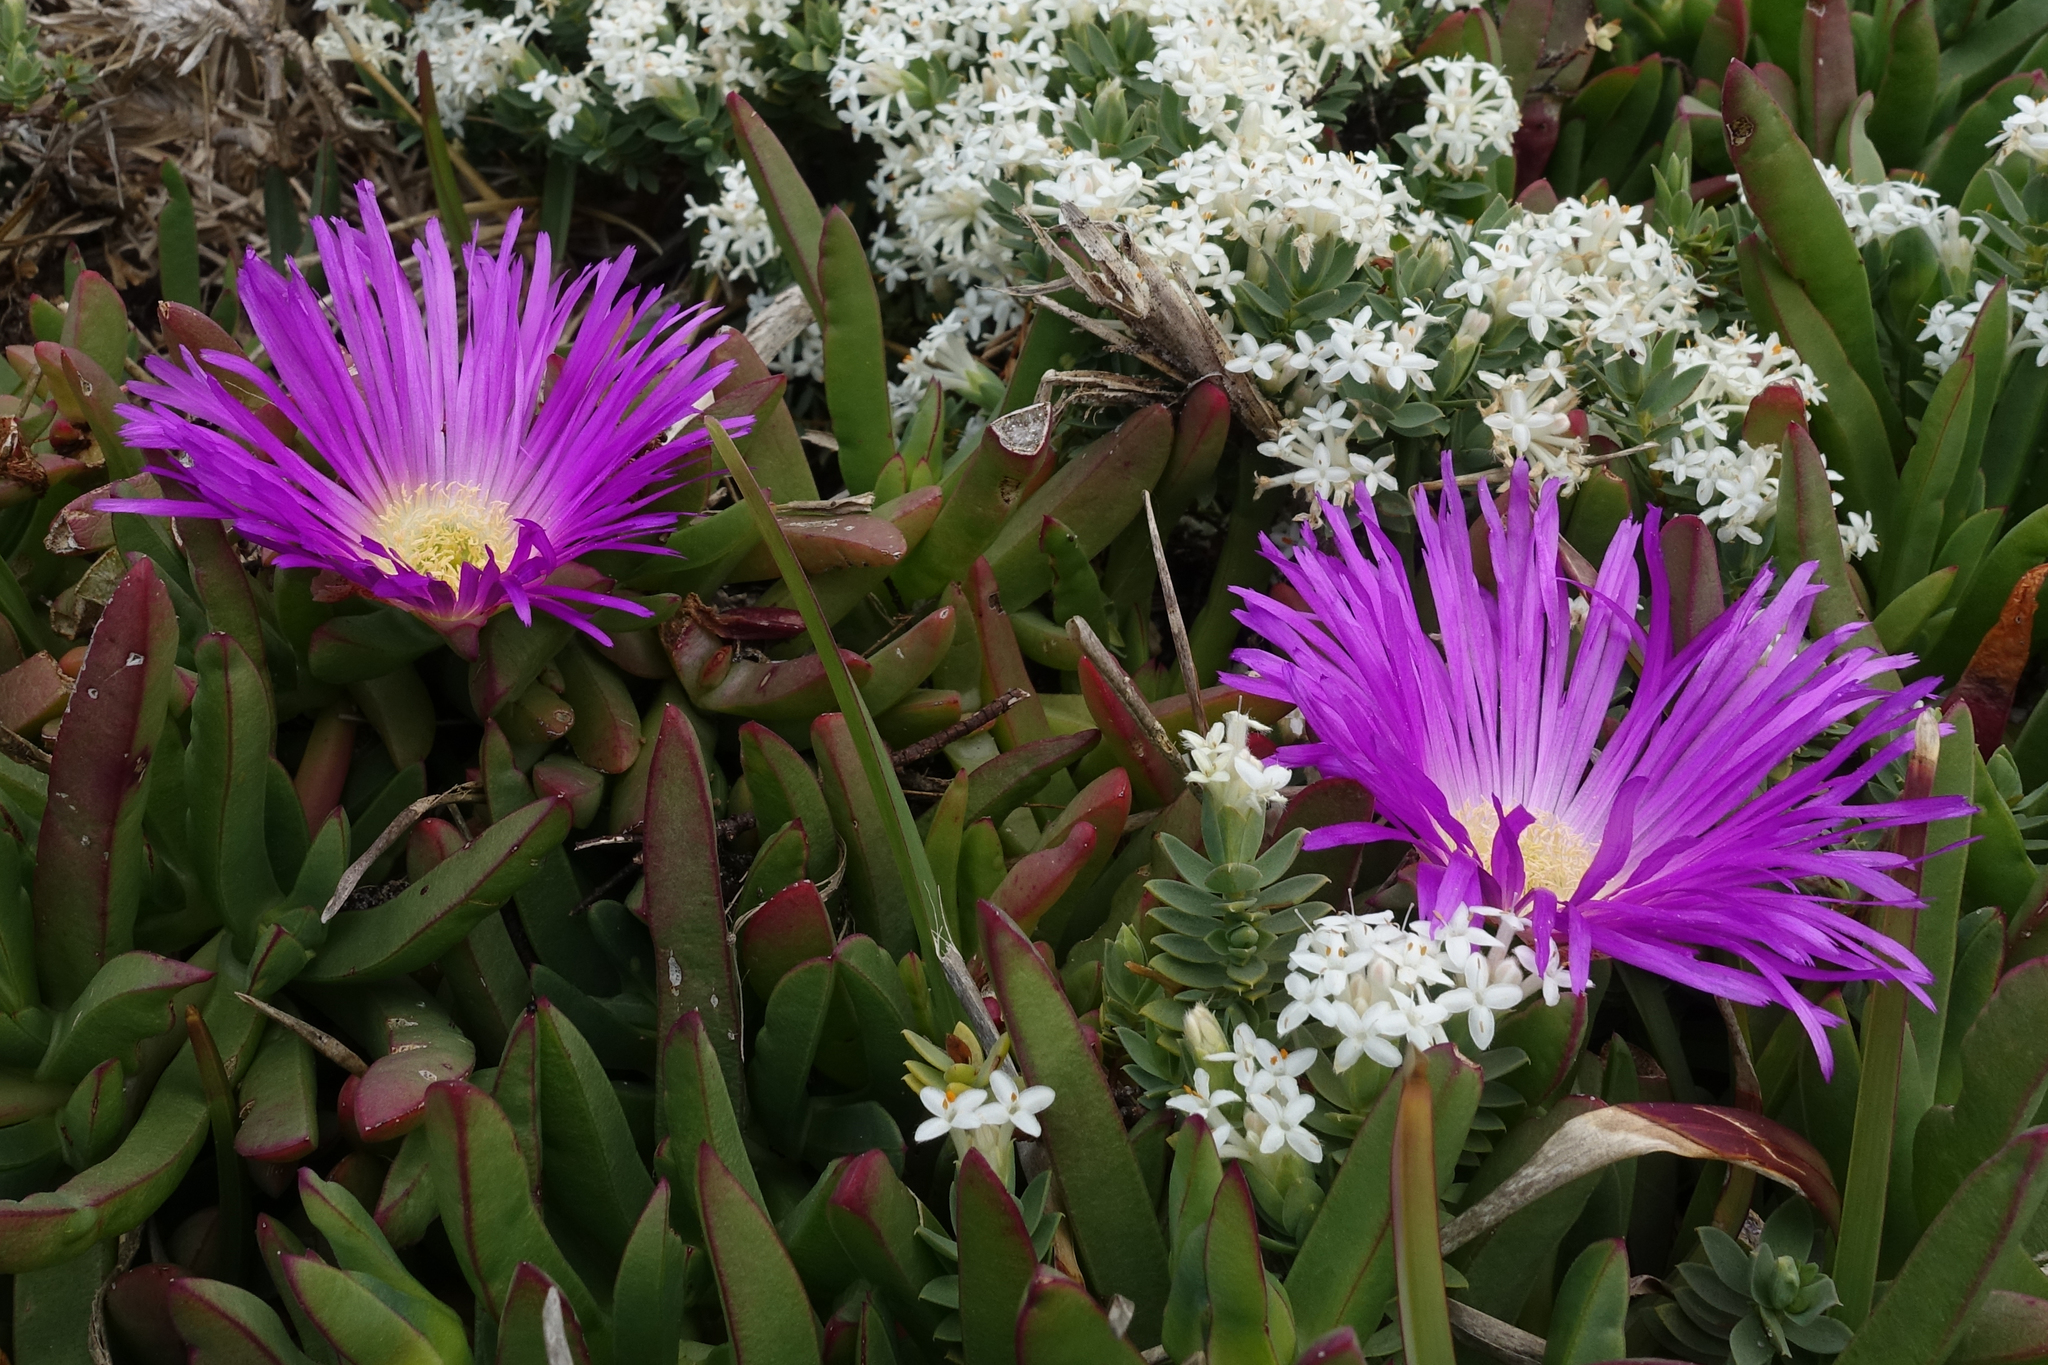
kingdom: Plantae
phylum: Tracheophyta
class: Magnoliopsida
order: Caryophyllales
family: Aizoaceae
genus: Carpobrotus
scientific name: Carpobrotus rossii
